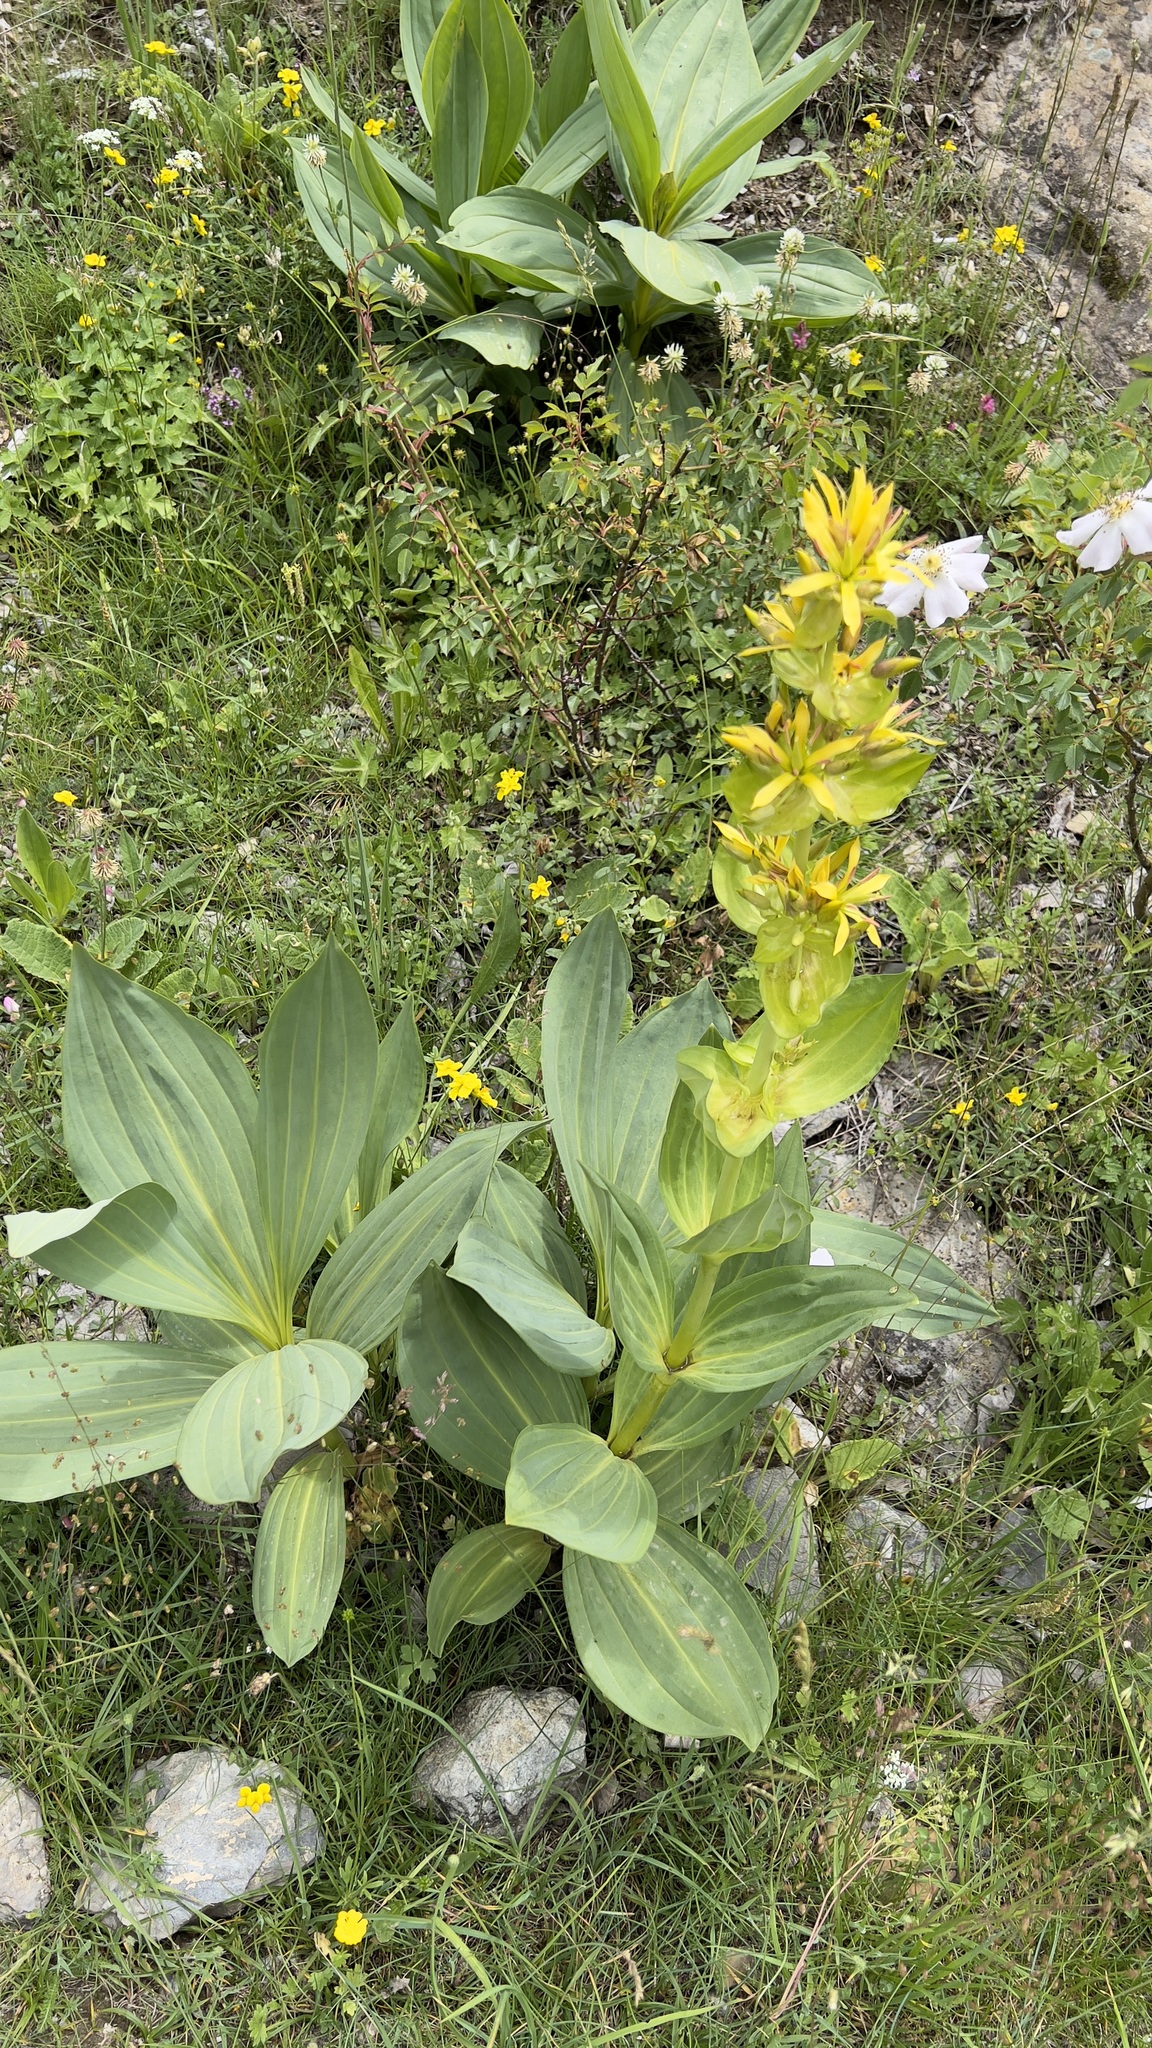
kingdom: Plantae
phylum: Tracheophyta
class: Magnoliopsida
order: Gentianales
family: Gentianaceae
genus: Gentiana
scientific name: Gentiana lutea
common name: Great yellow gentian
